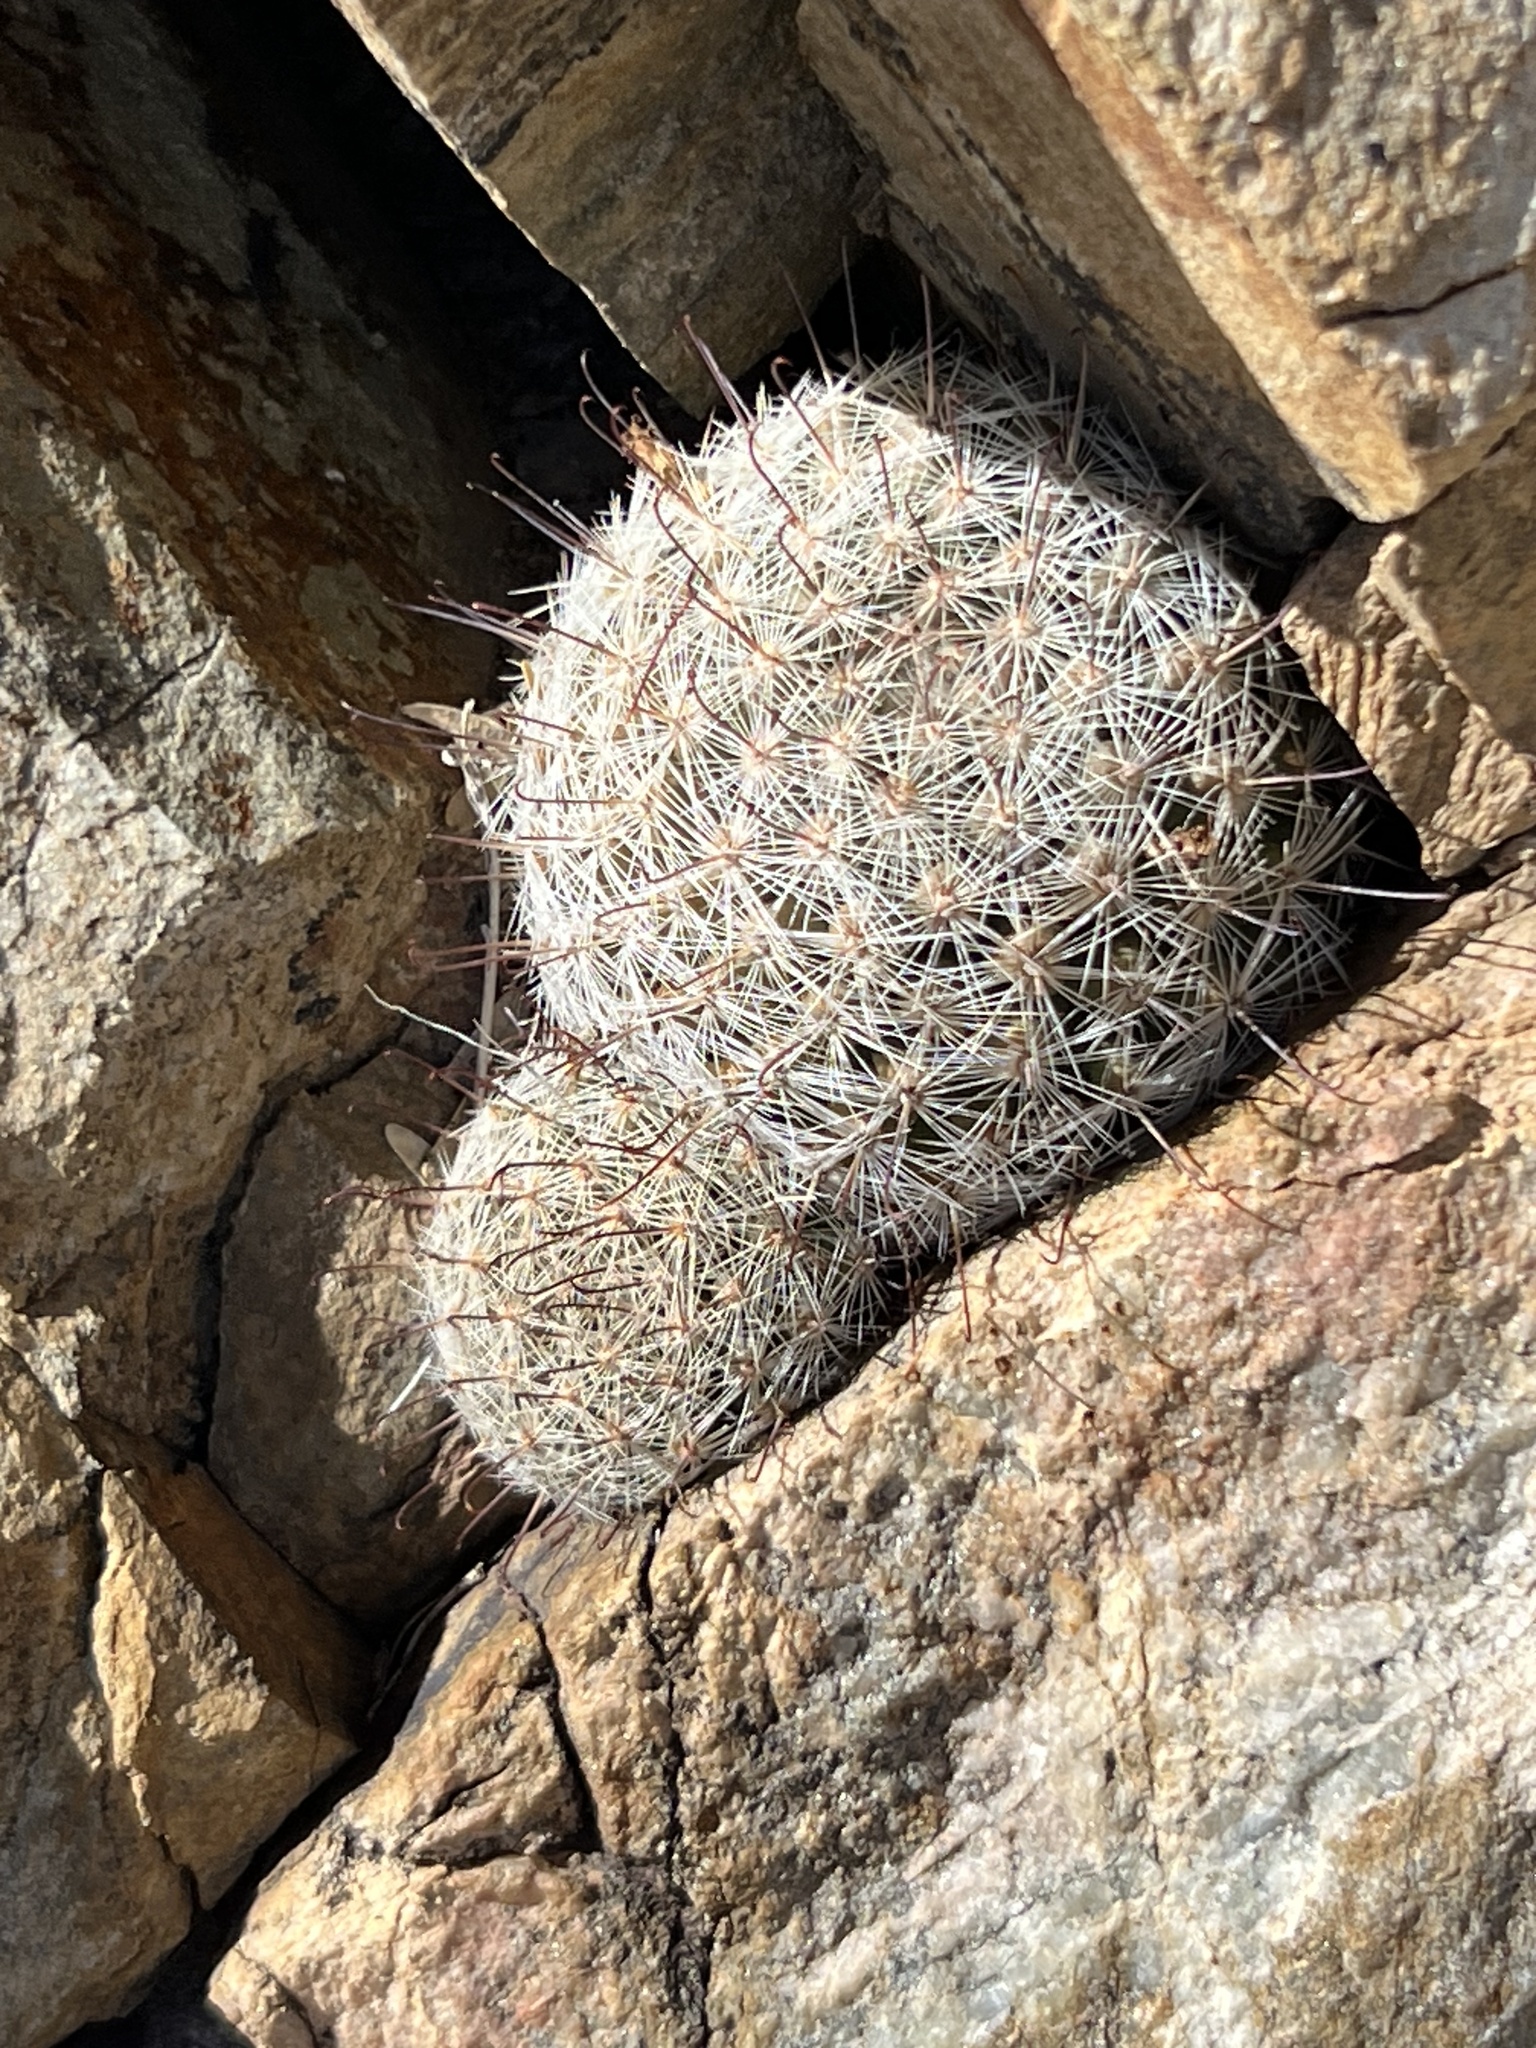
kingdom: Plantae
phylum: Tracheophyta
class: Magnoliopsida
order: Caryophyllales
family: Cactaceae
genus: Cochemiea
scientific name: Cochemiea grahamii
